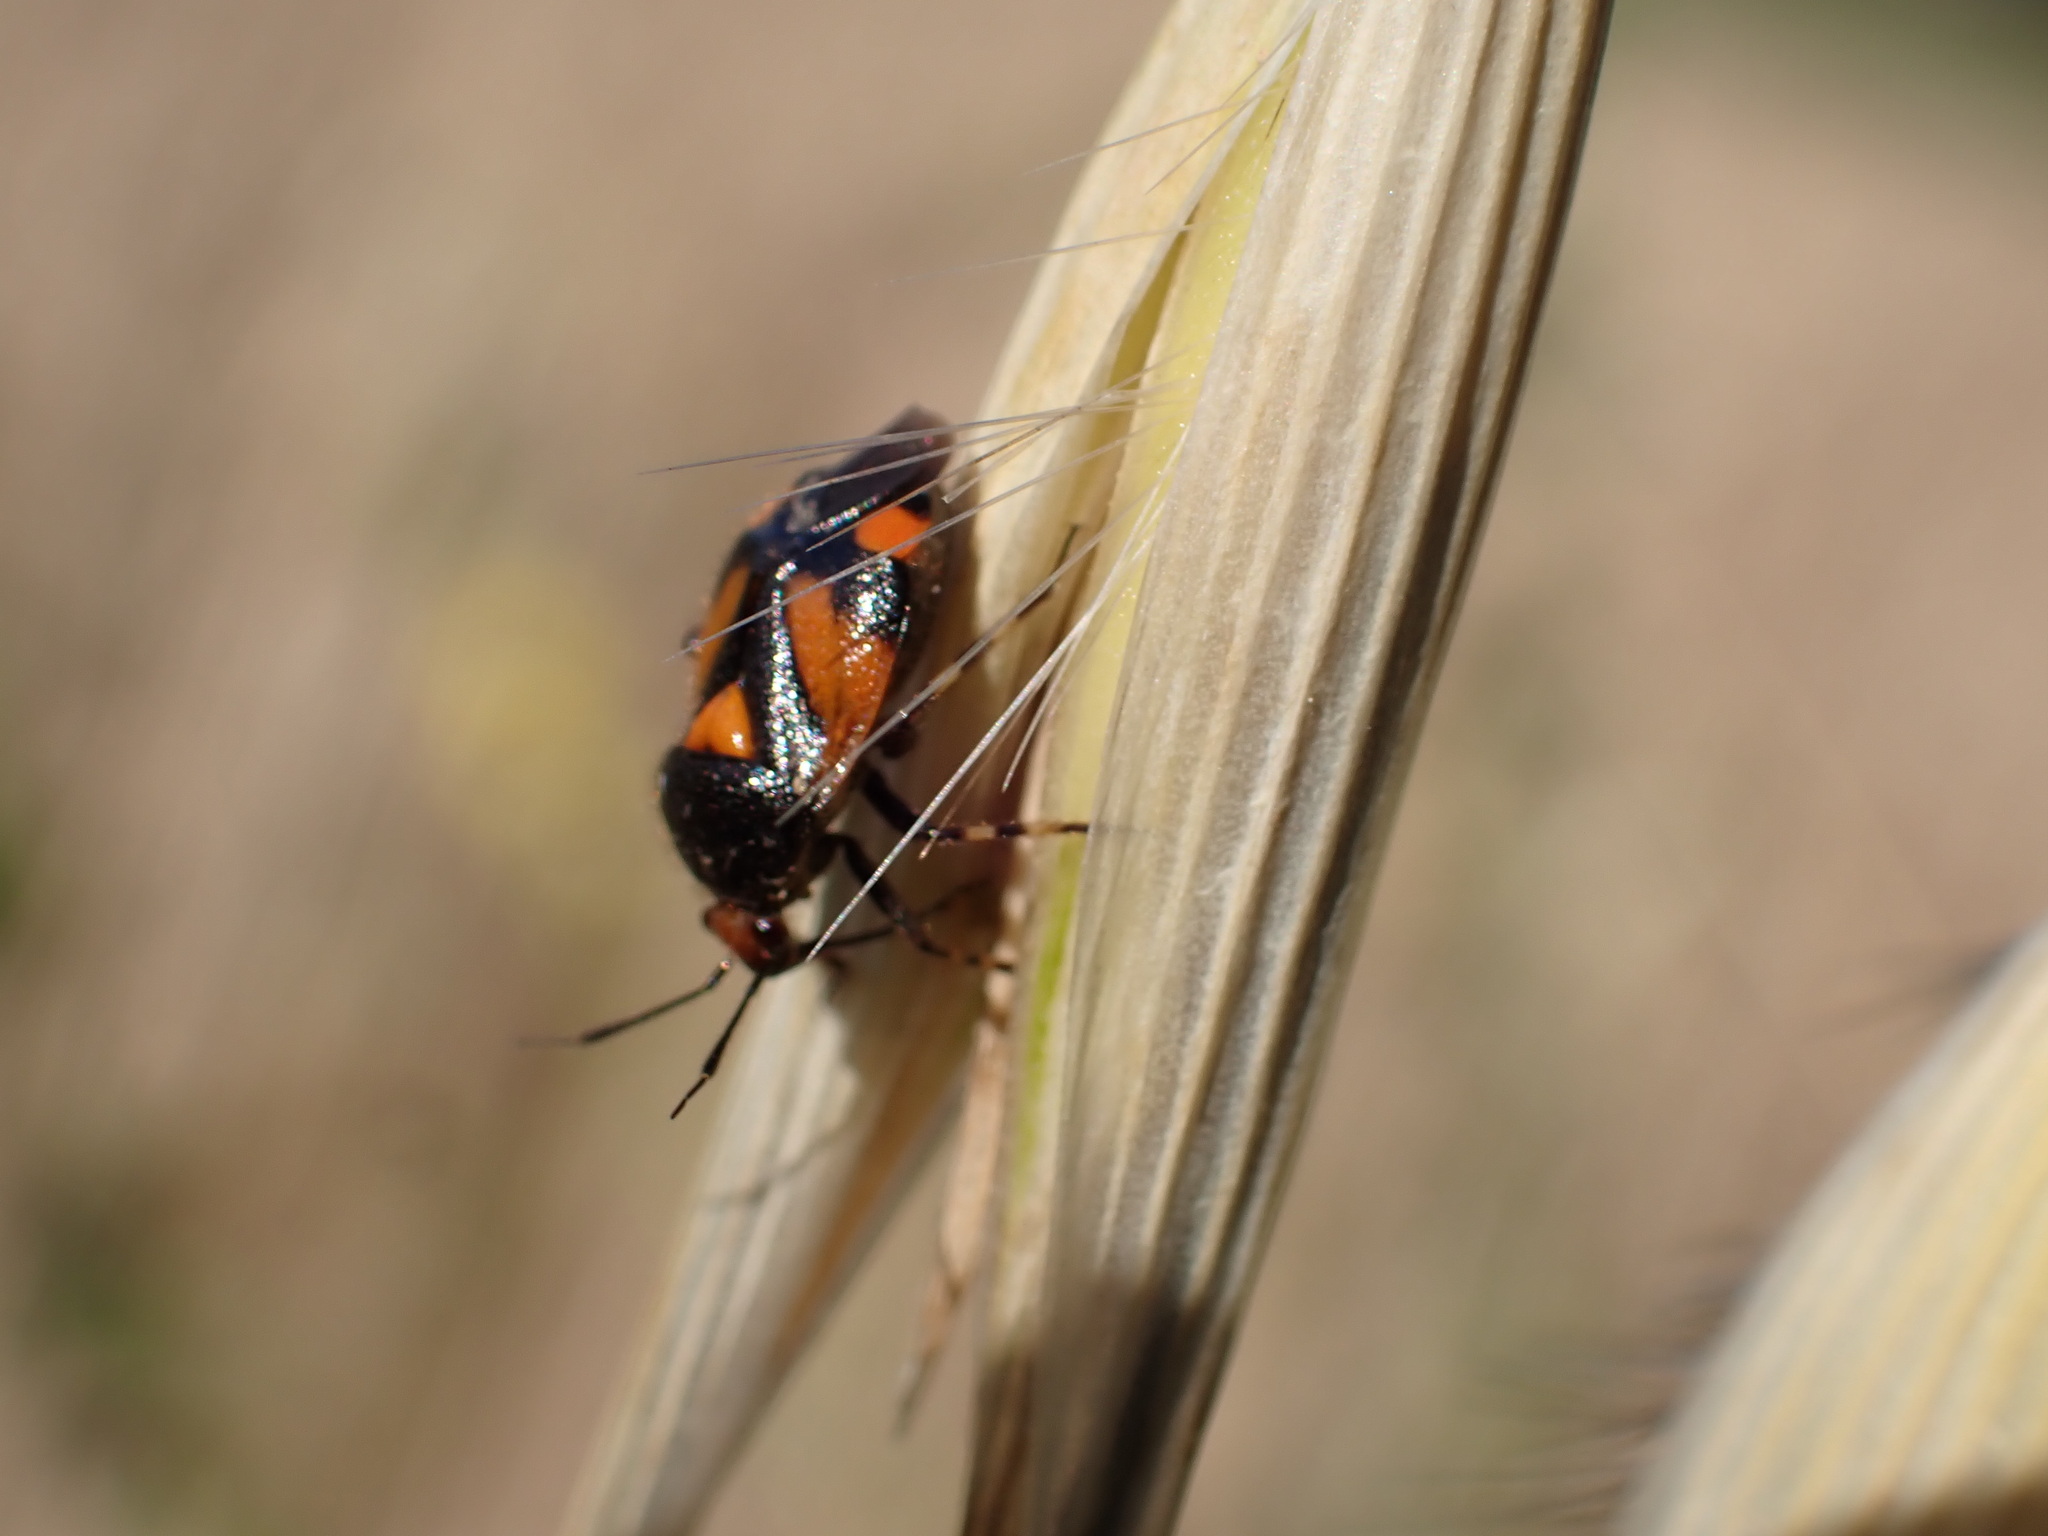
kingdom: Animalia
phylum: Arthropoda
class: Insecta
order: Hemiptera
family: Miridae
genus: Deraeocoris
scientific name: Deraeocoris schach
